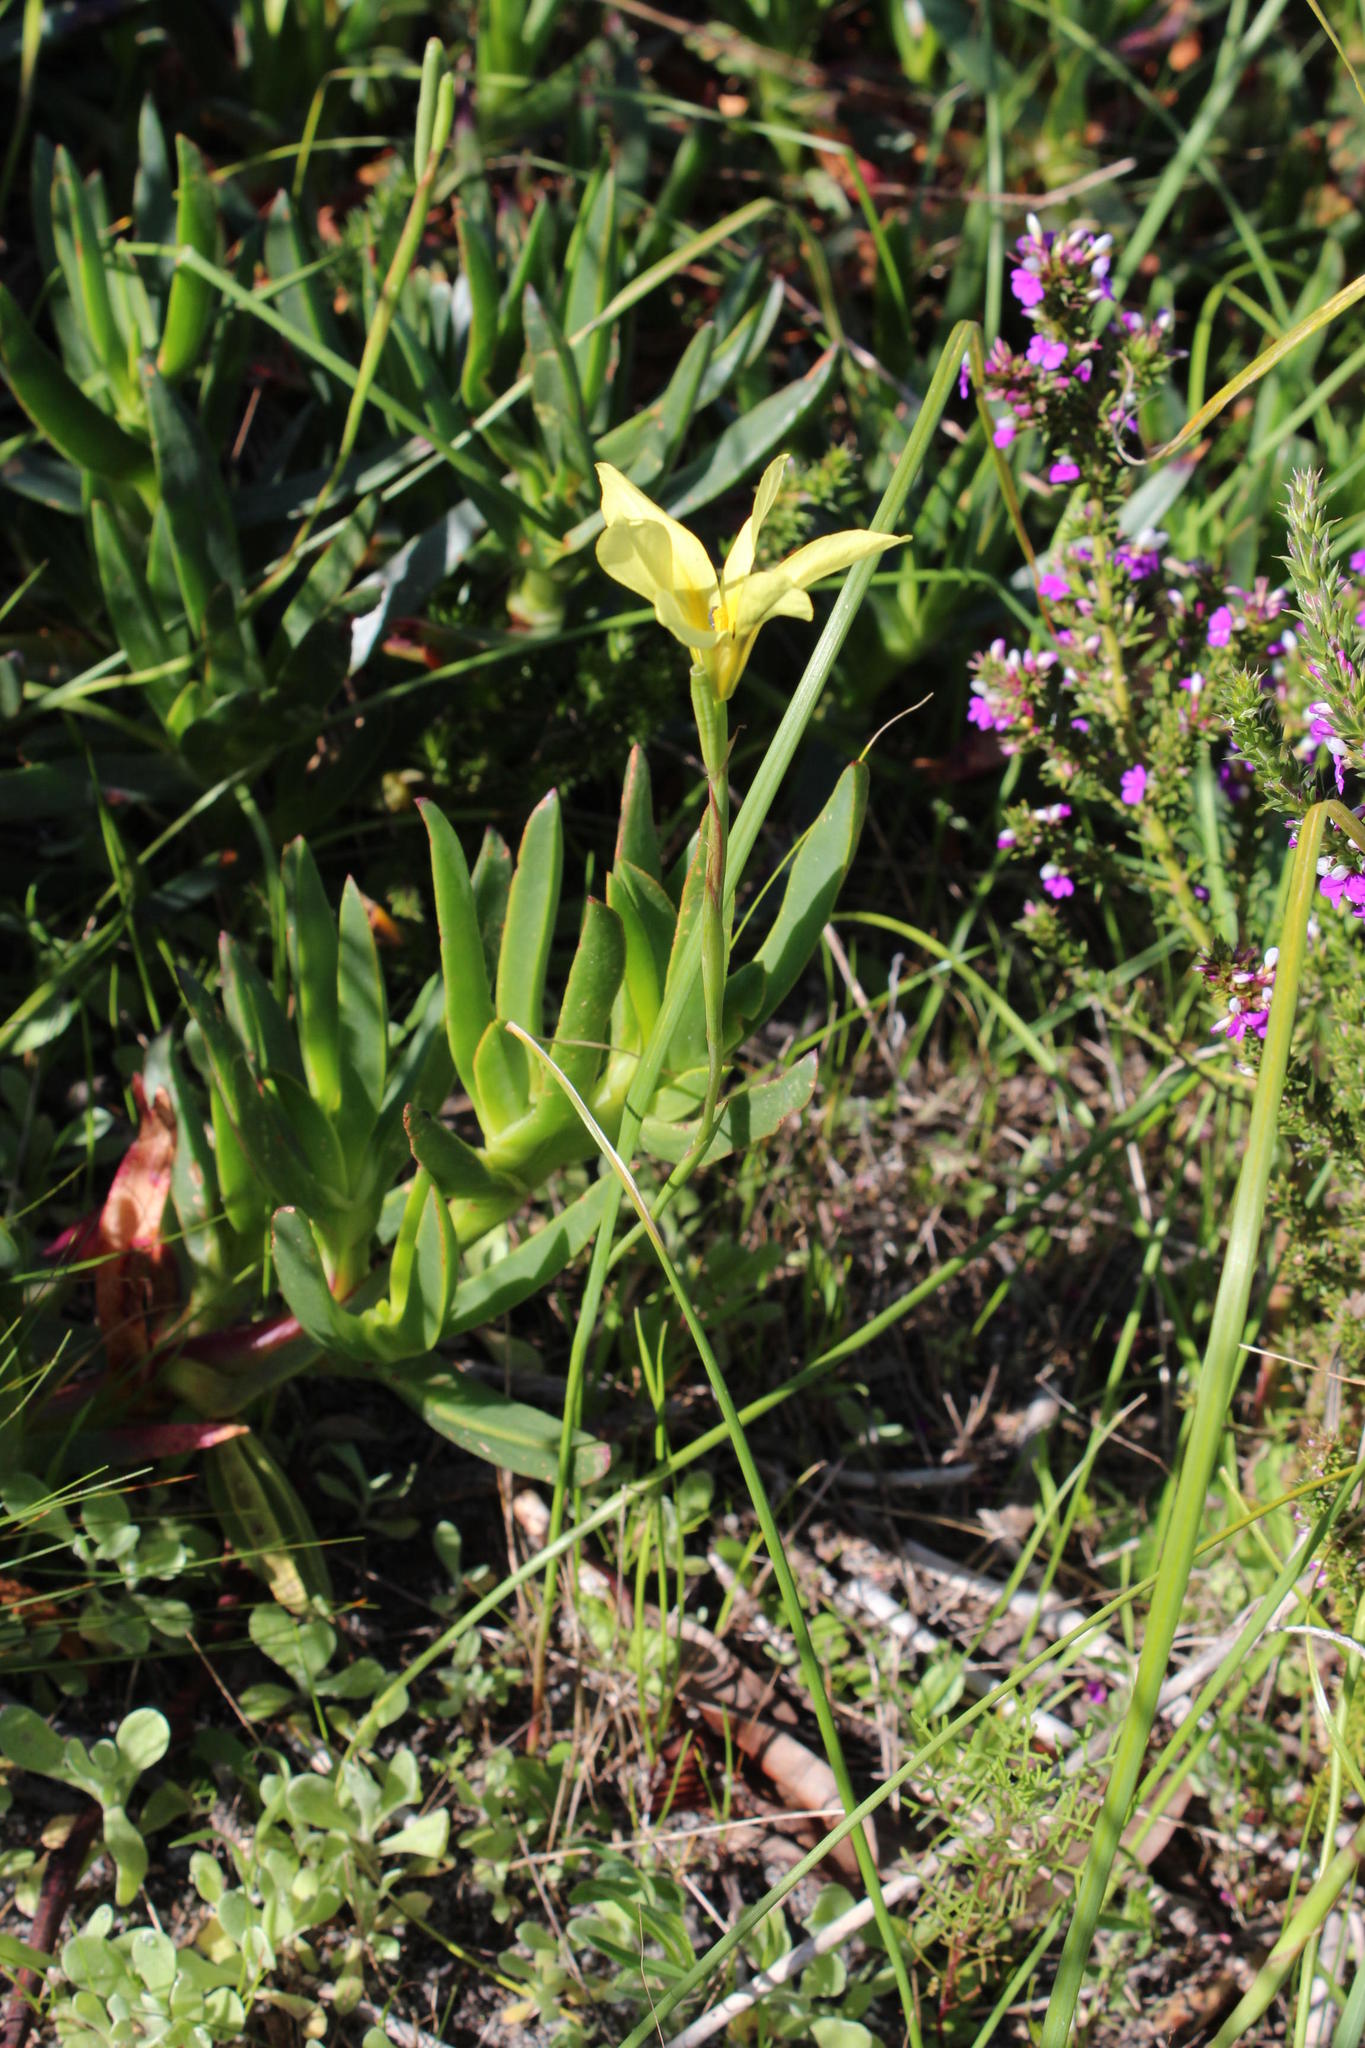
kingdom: Plantae
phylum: Tracheophyta
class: Liliopsida
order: Asparagales
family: Iridaceae
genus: Moraea
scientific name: Moraea collina
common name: Cape-tulip
